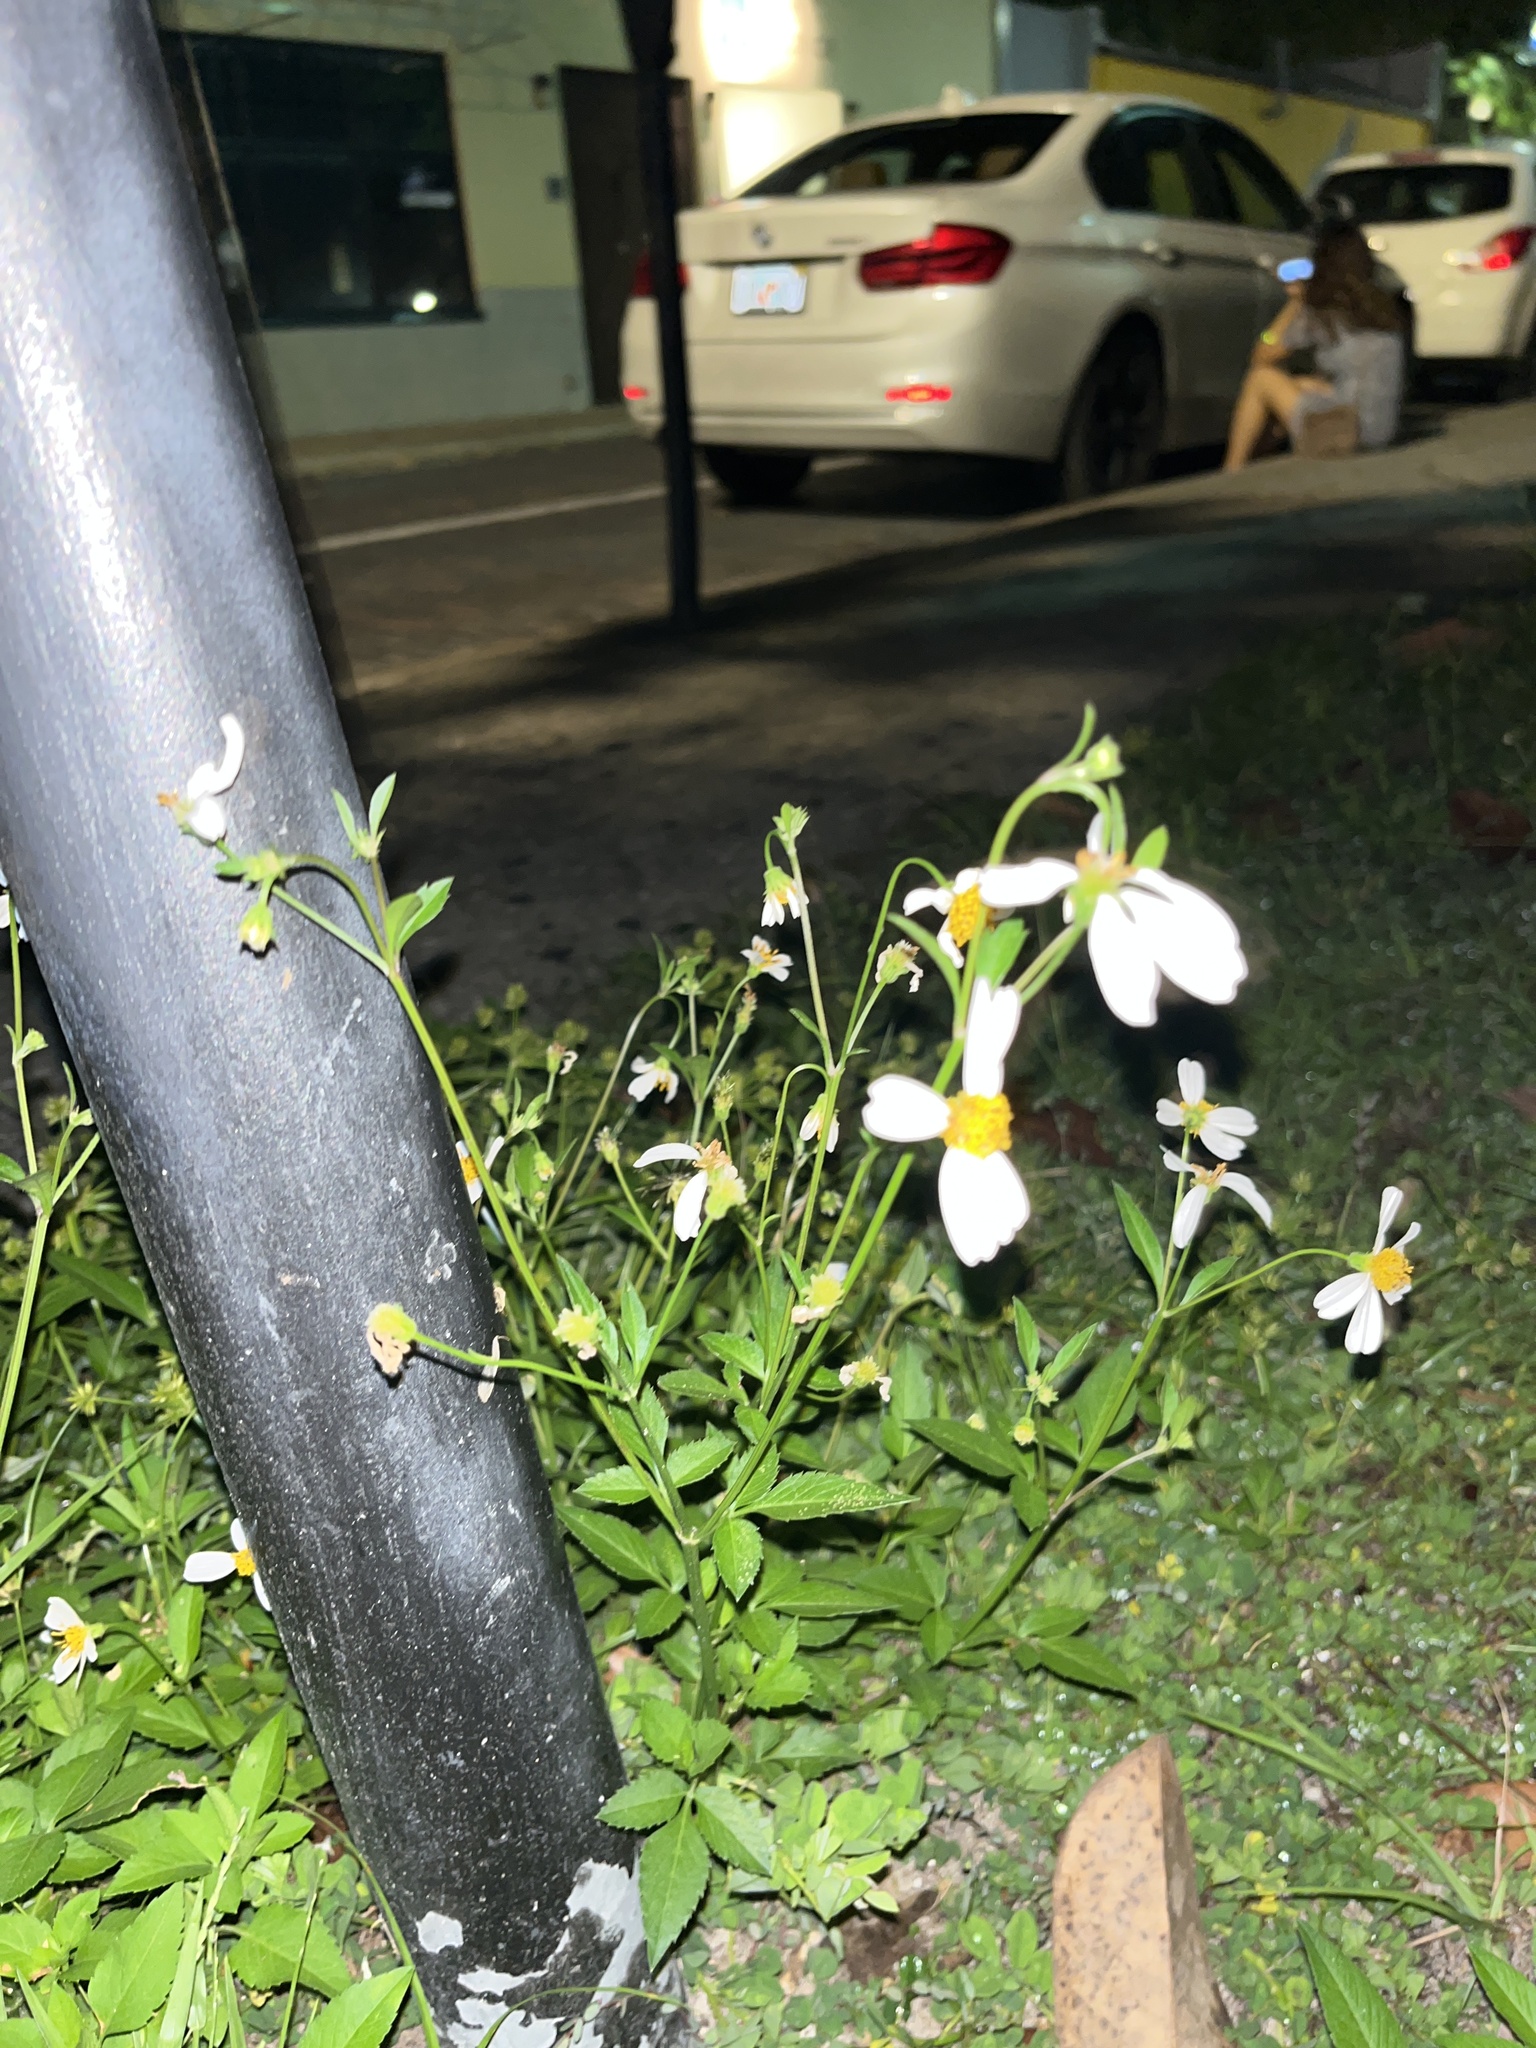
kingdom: Plantae
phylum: Tracheophyta
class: Magnoliopsida
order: Asterales
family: Asteraceae
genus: Bidens
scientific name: Bidens alba
